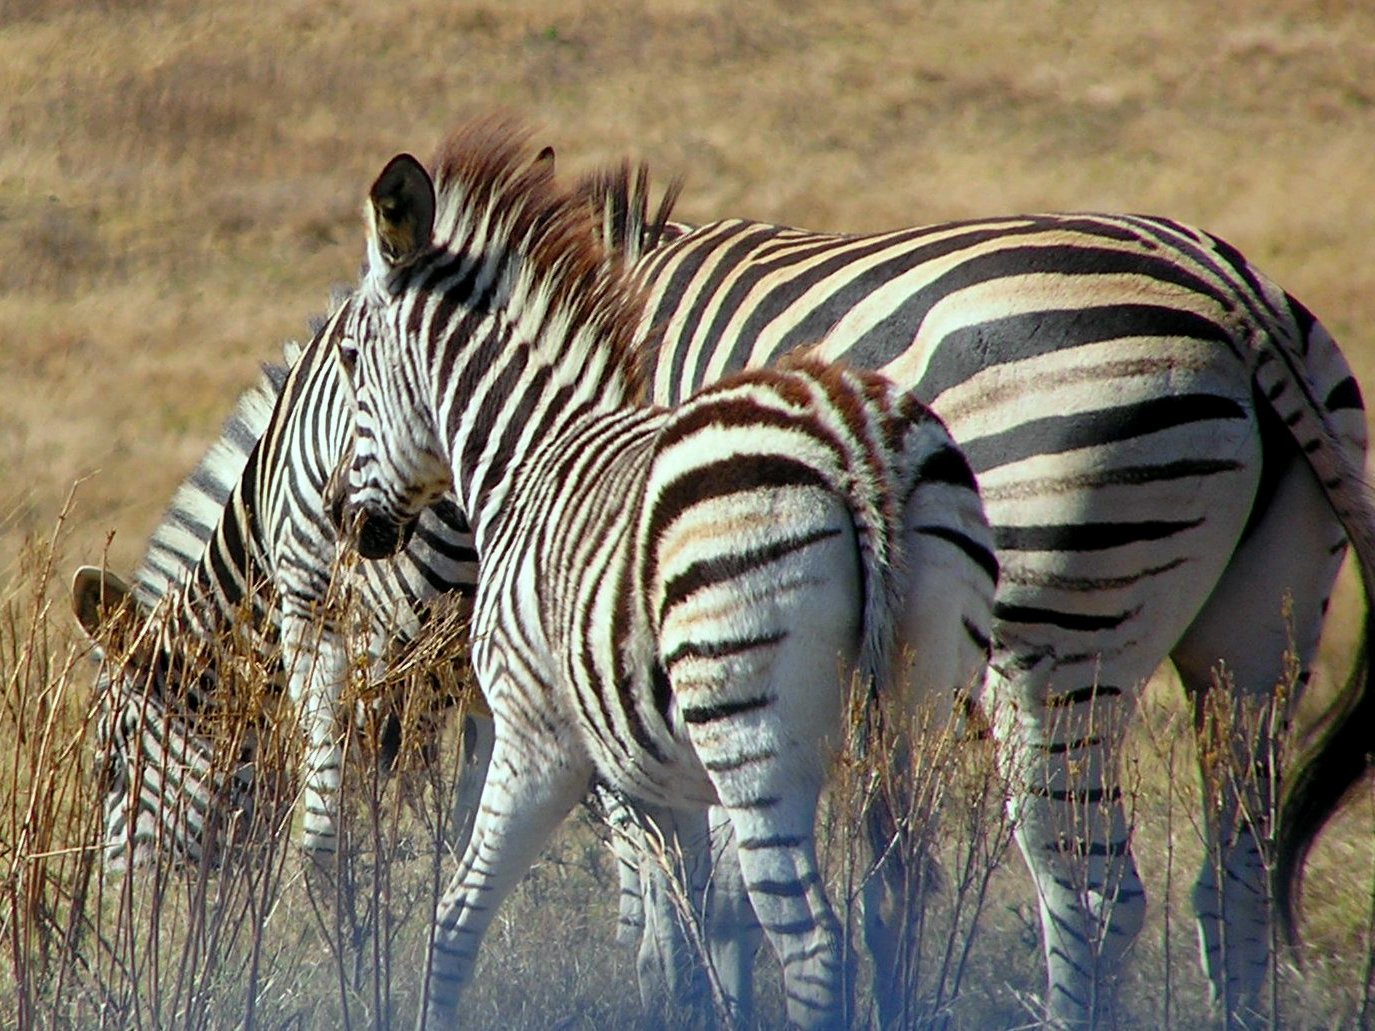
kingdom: Animalia
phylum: Chordata
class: Mammalia
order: Perissodactyla
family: Equidae
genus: Equus
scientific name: Equus quagga
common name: Plains zebra
